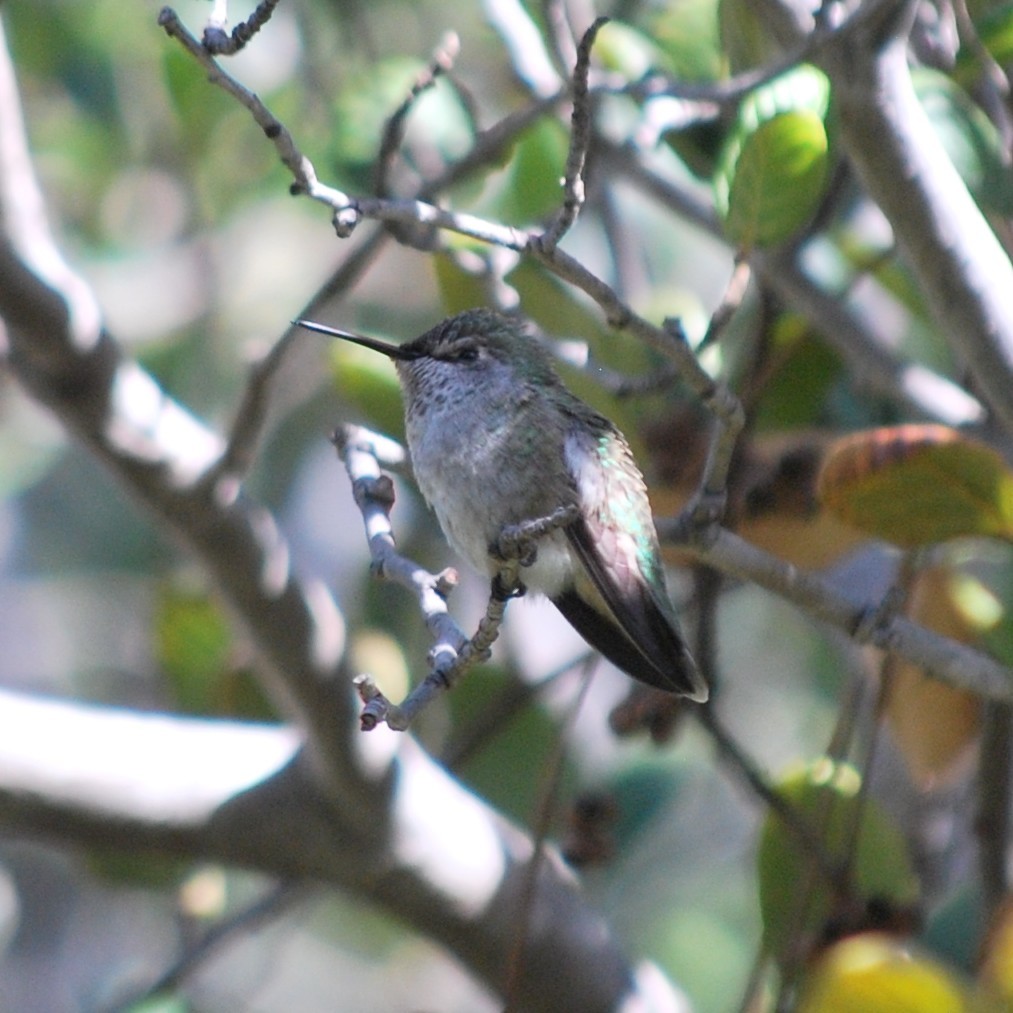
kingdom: Animalia
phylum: Chordata
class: Aves
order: Apodiformes
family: Trochilidae
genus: Calypte
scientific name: Calypte anna
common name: Anna's hummingbird
